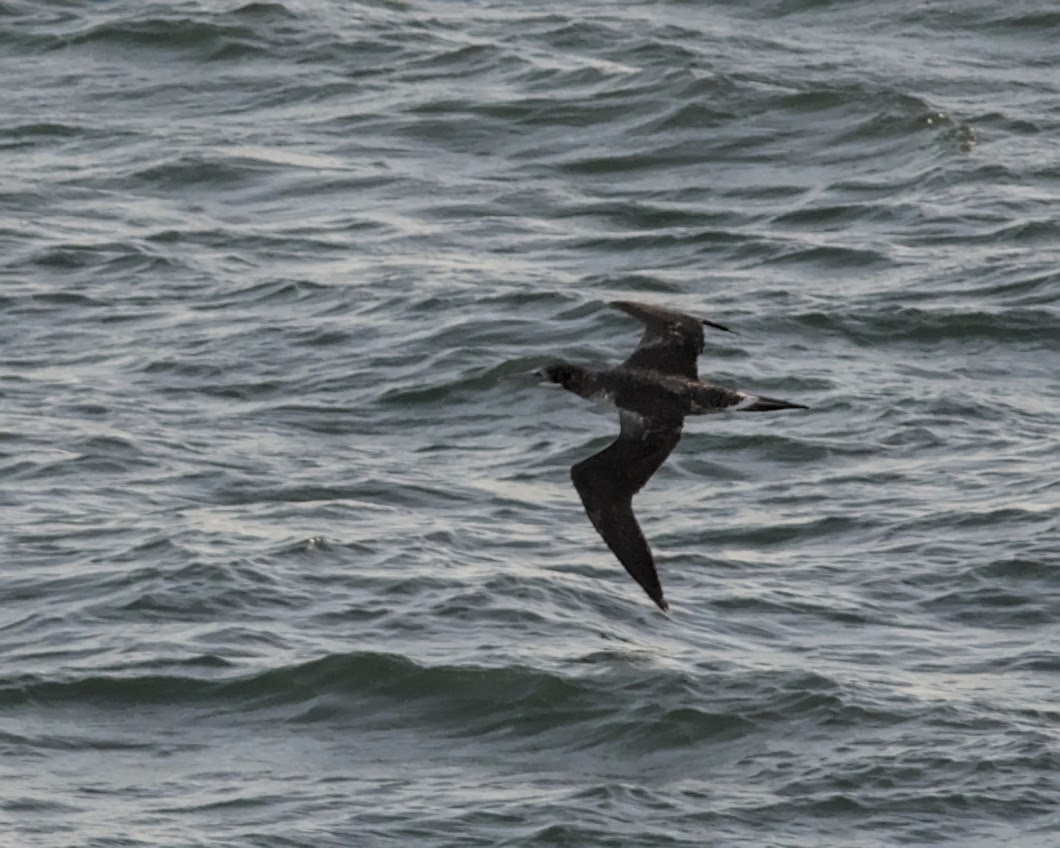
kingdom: Animalia
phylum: Chordata
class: Aves
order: Suliformes
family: Sulidae
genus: Morus
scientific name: Morus bassanus
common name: Northern gannet
